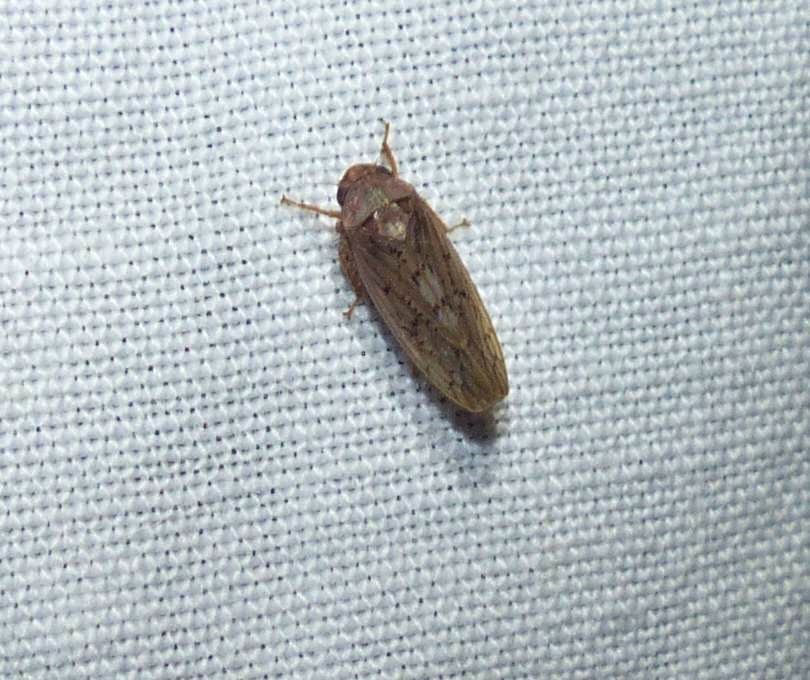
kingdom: Animalia
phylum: Arthropoda
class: Insecta
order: Hemiptera
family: Cicadellidae
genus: Ponana
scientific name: Ponana rubida
